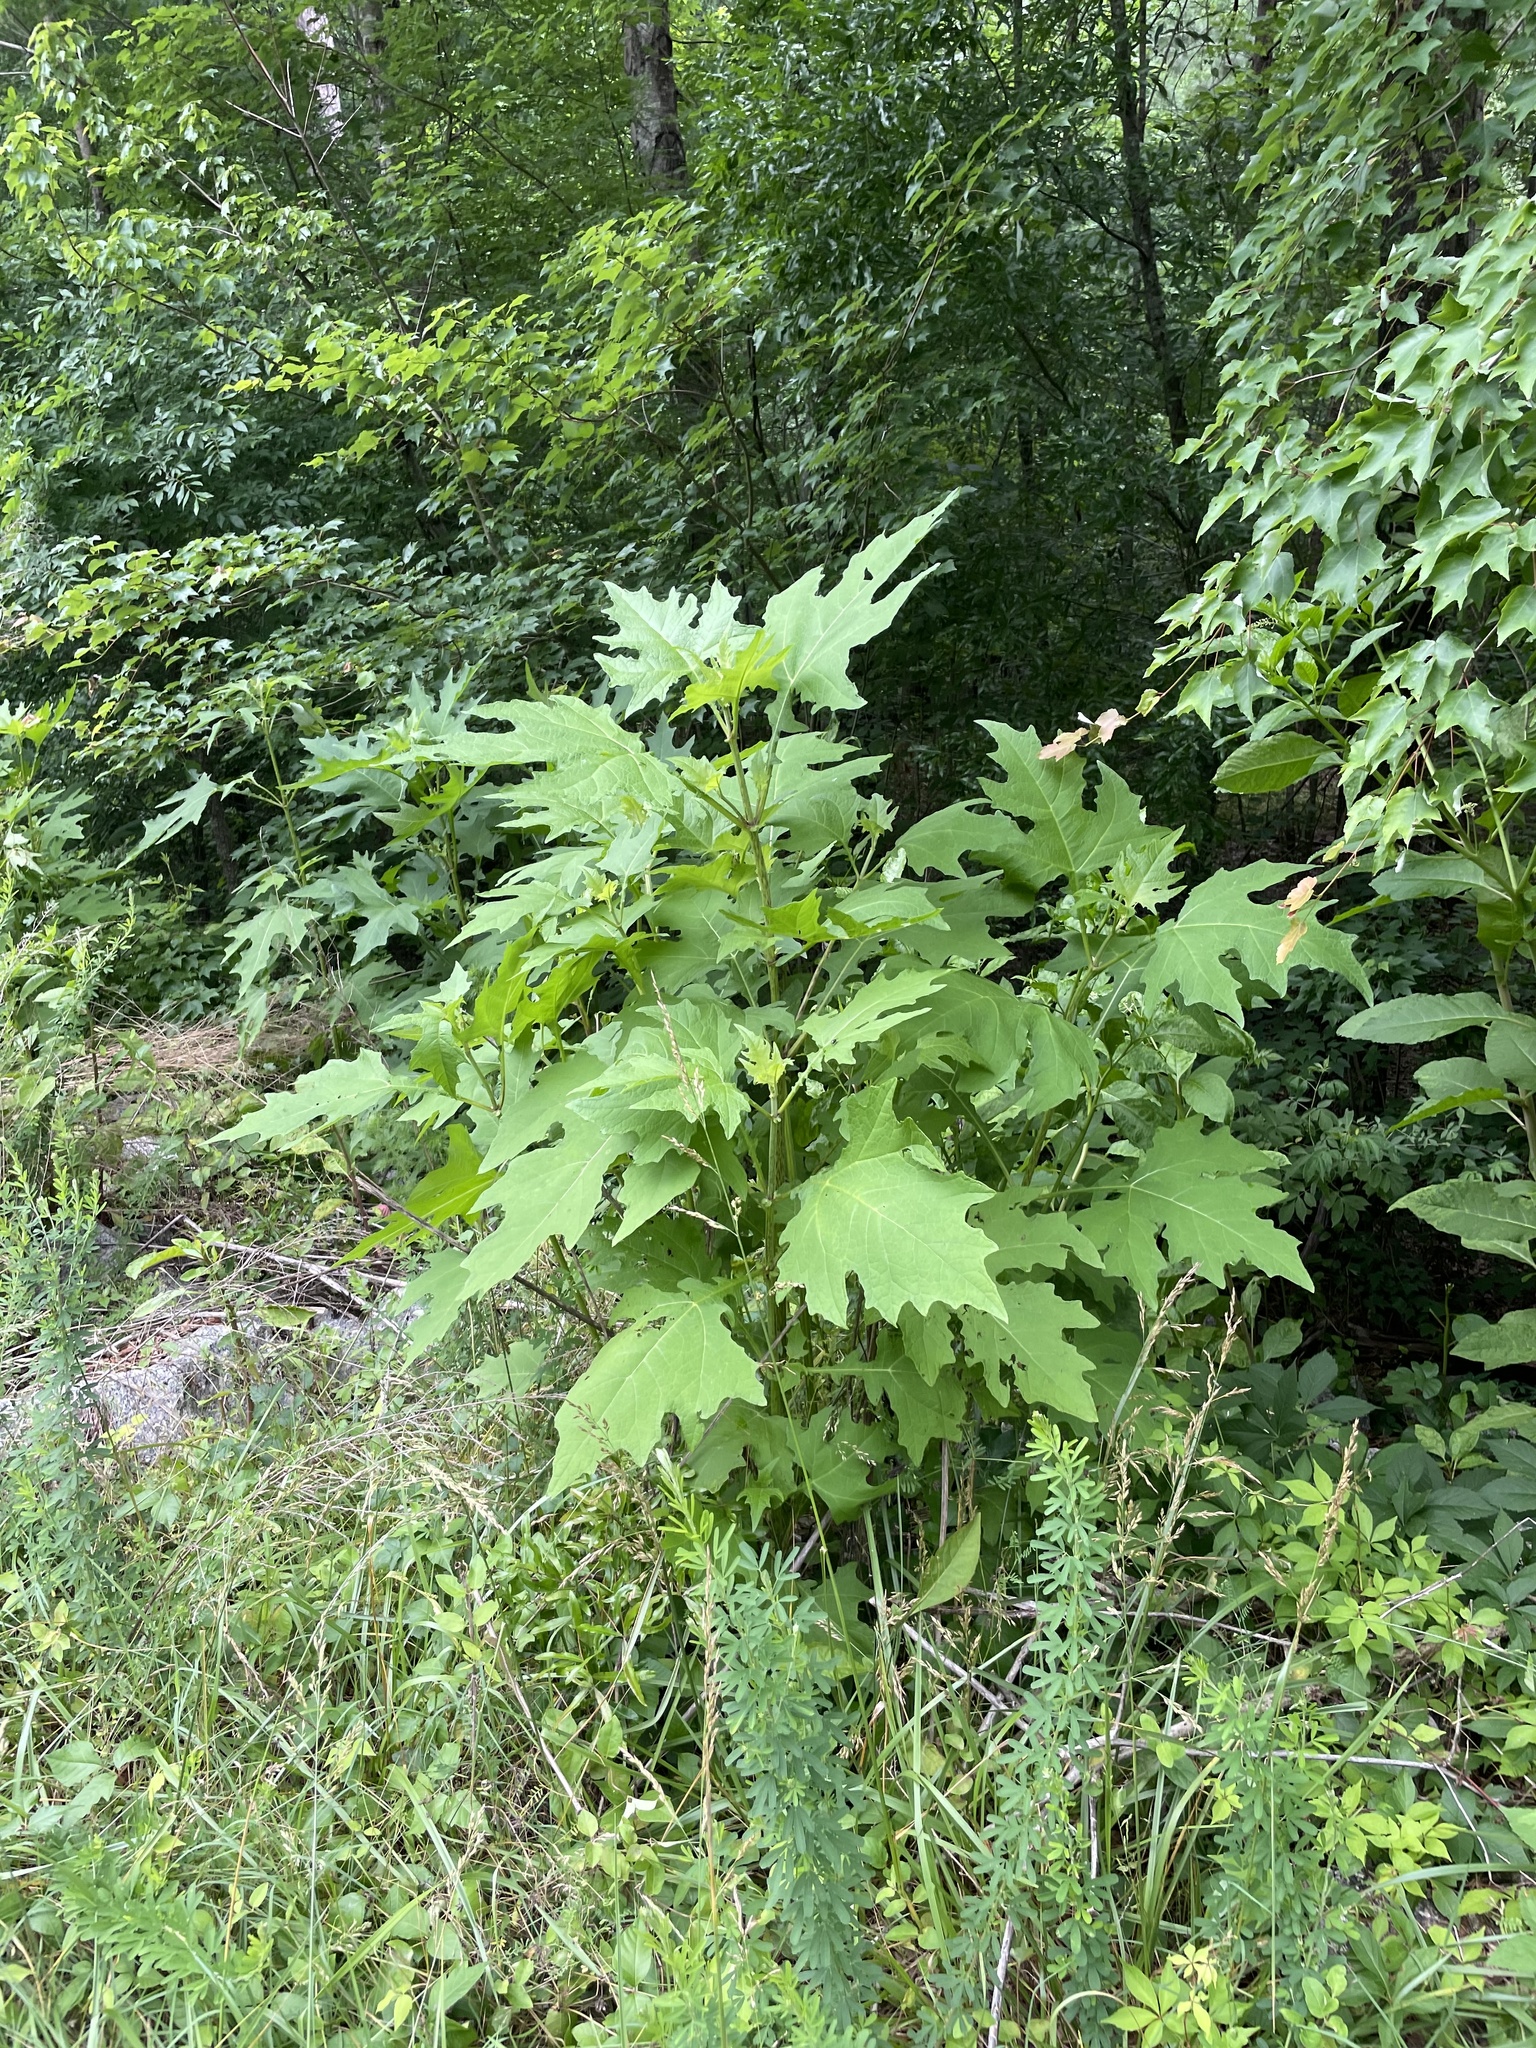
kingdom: Plantae
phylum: Tracheophyta
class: Magnoliopsida
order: Asterales
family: Asteraceae
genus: Smallanthus
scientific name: Smallanthus uvedalia
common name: Bear's-foot
